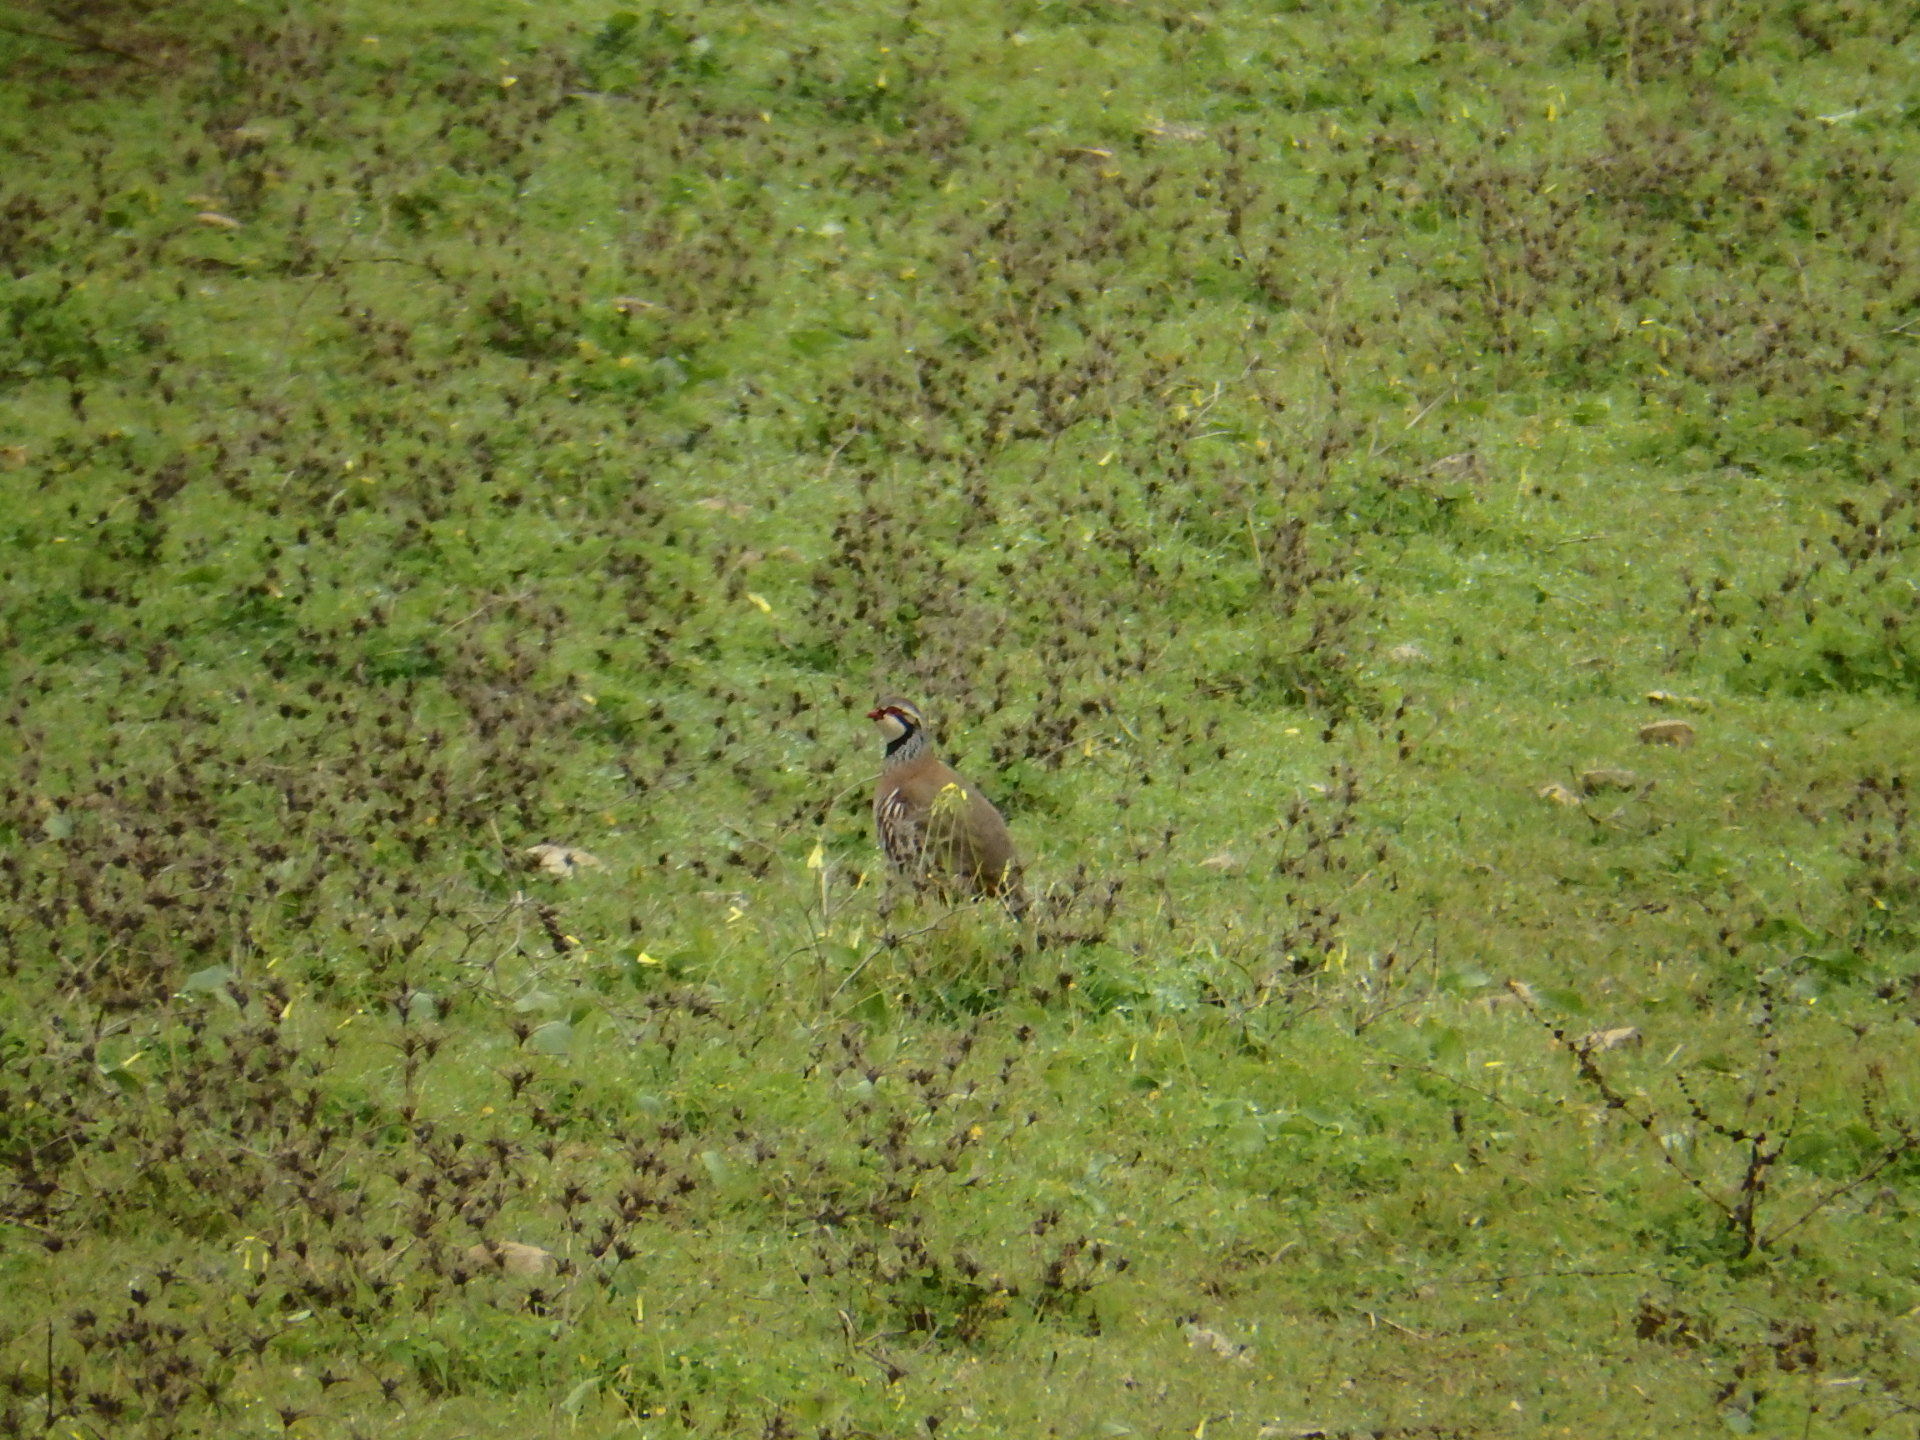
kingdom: Animalia
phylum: Chordata
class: Aves
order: Galliformes
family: Phasianidae
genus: Alectoris
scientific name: Alectoris rufa
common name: Red-legged partridge
